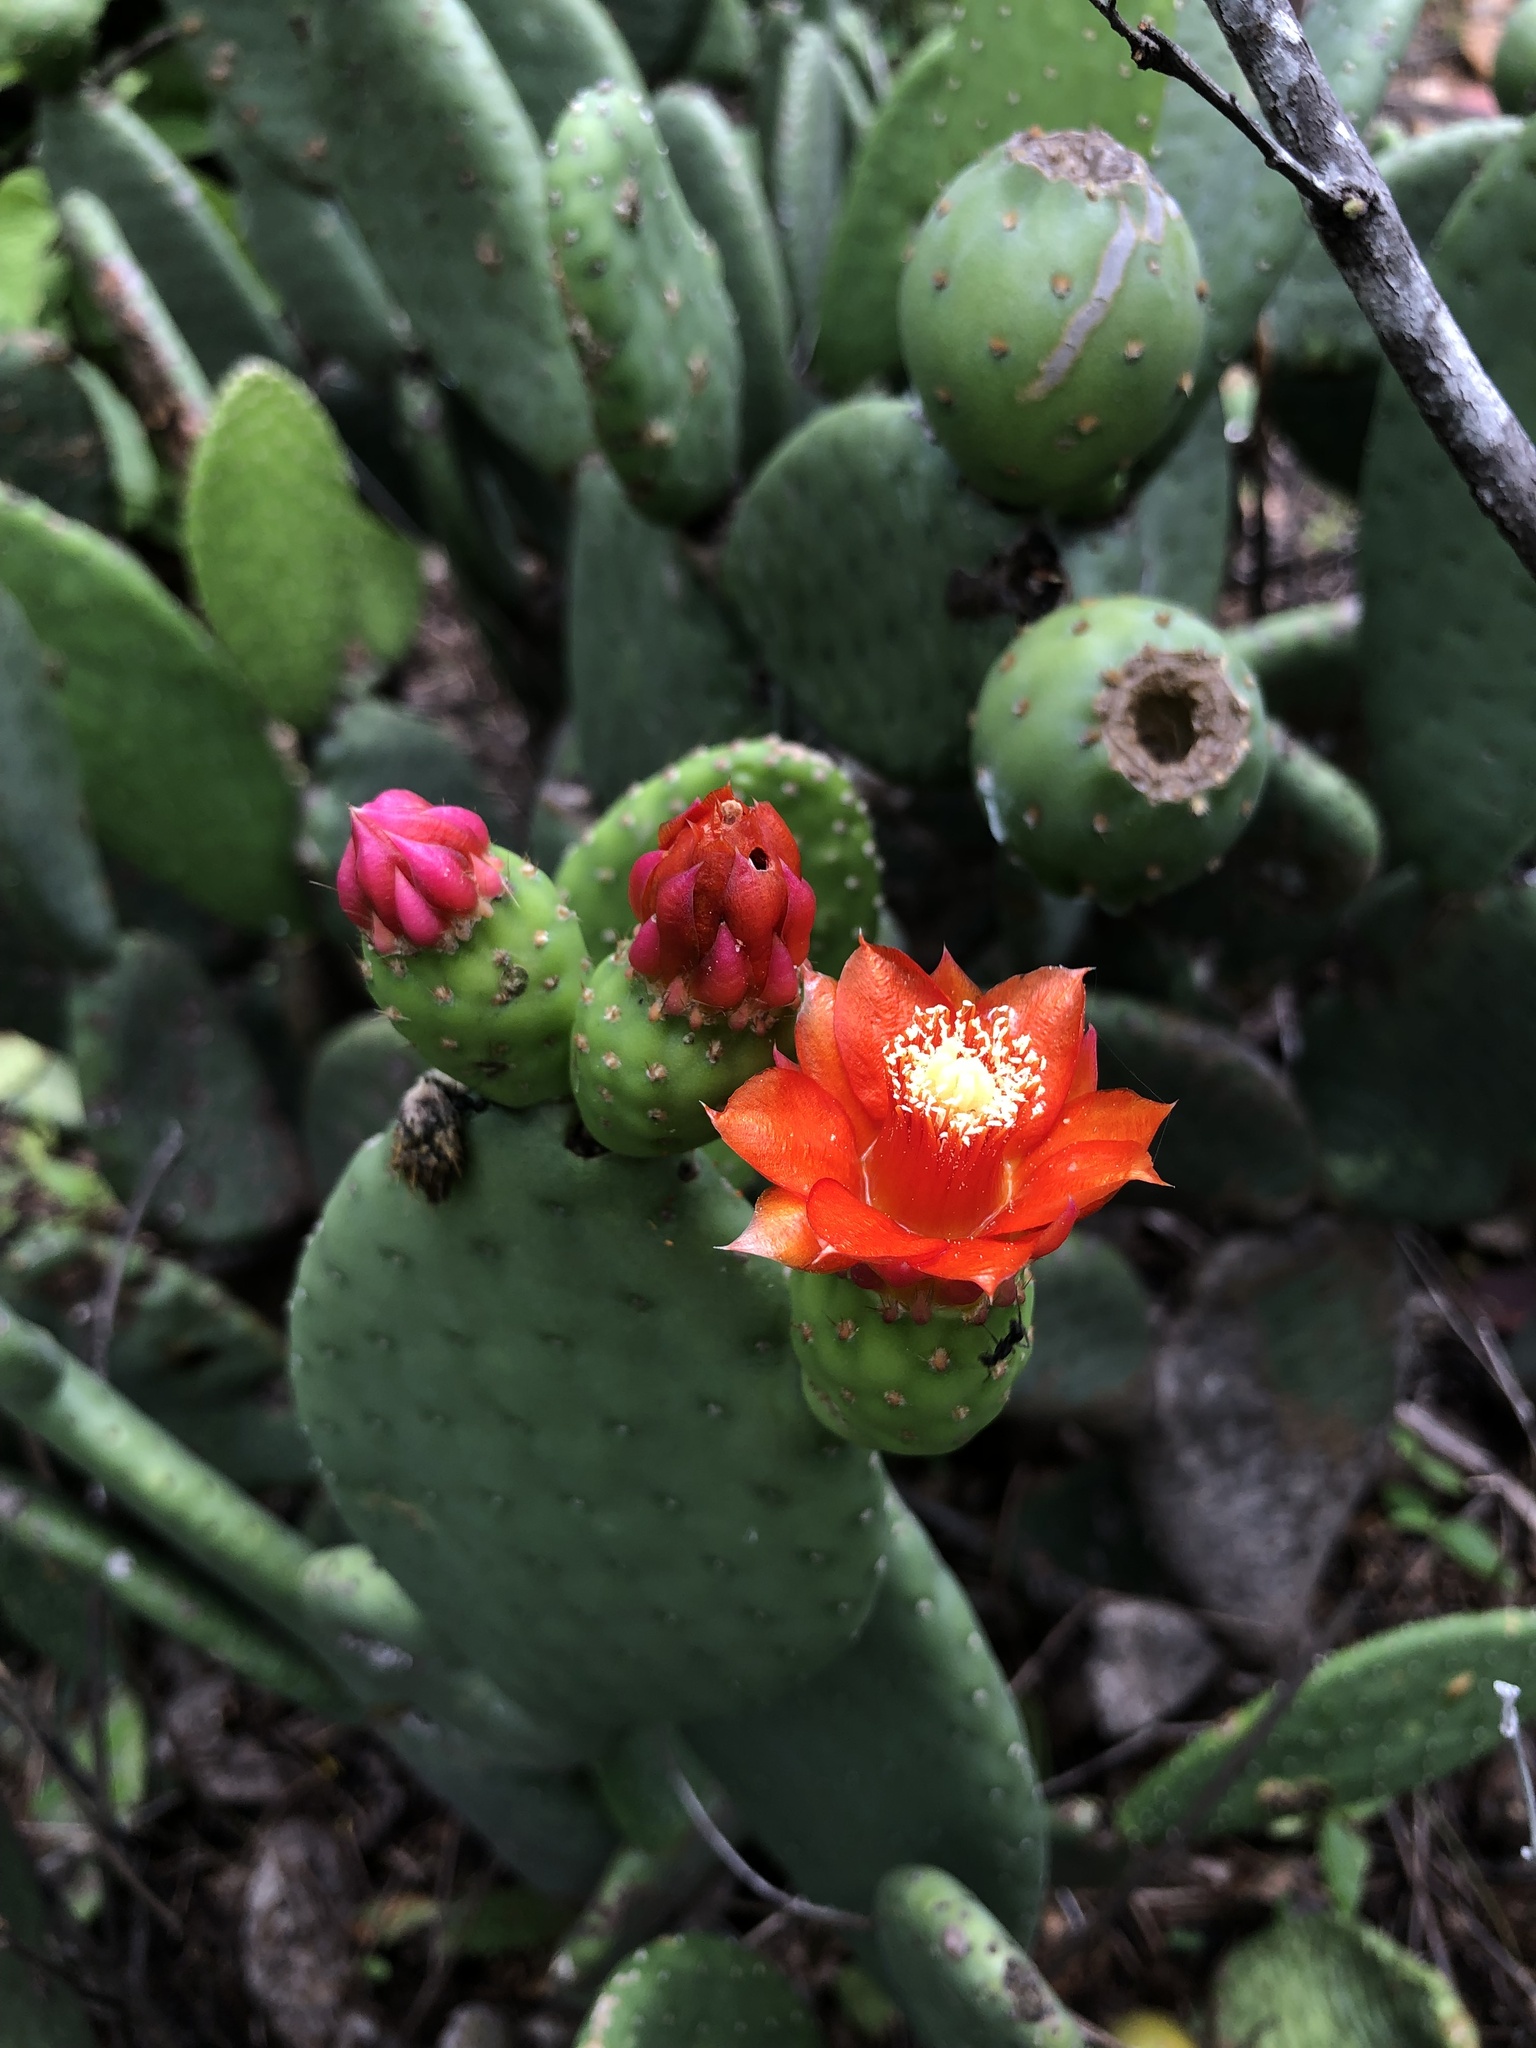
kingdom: Plantae
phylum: Tracheophyta
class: Magnoliopsida
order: Caryophyllales
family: Cactaceae
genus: Tacinga
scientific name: Tacinga inamoena
